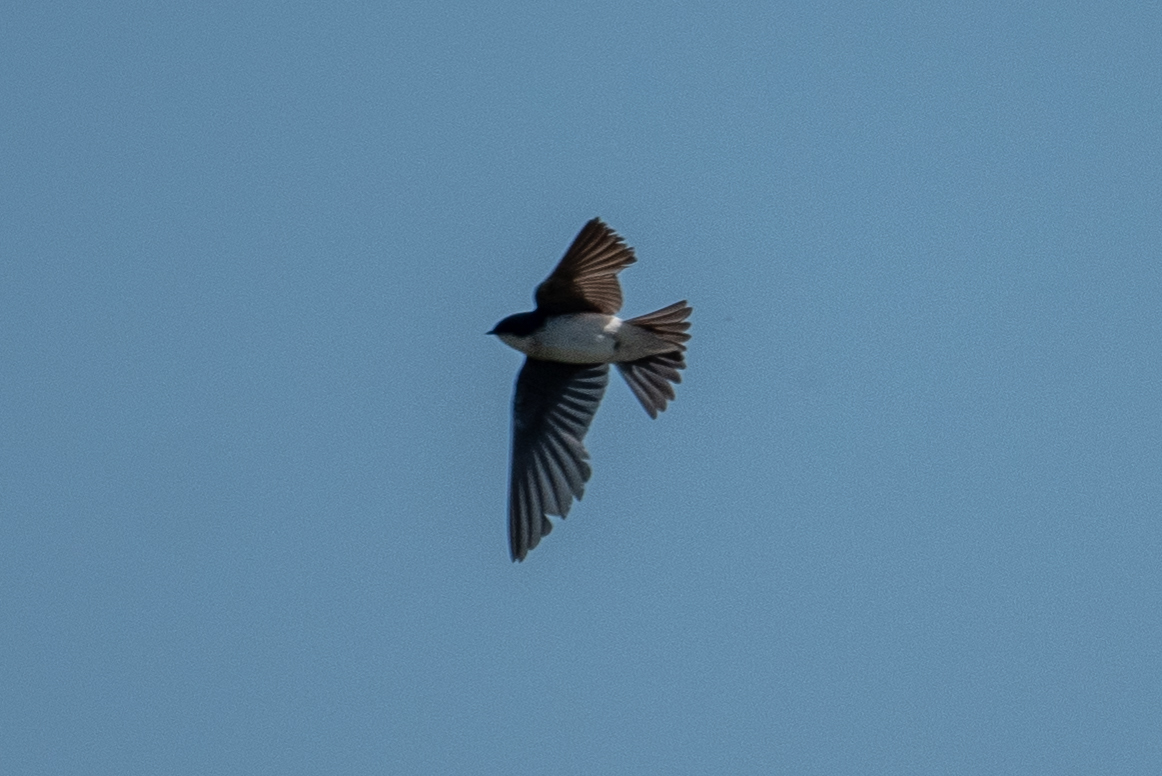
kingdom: Animalia
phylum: Chordata
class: Aves
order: Passeriformes
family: Hirundinidae
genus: Tachycineta
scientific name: Tachycineta bicolor
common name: Tree swallow
